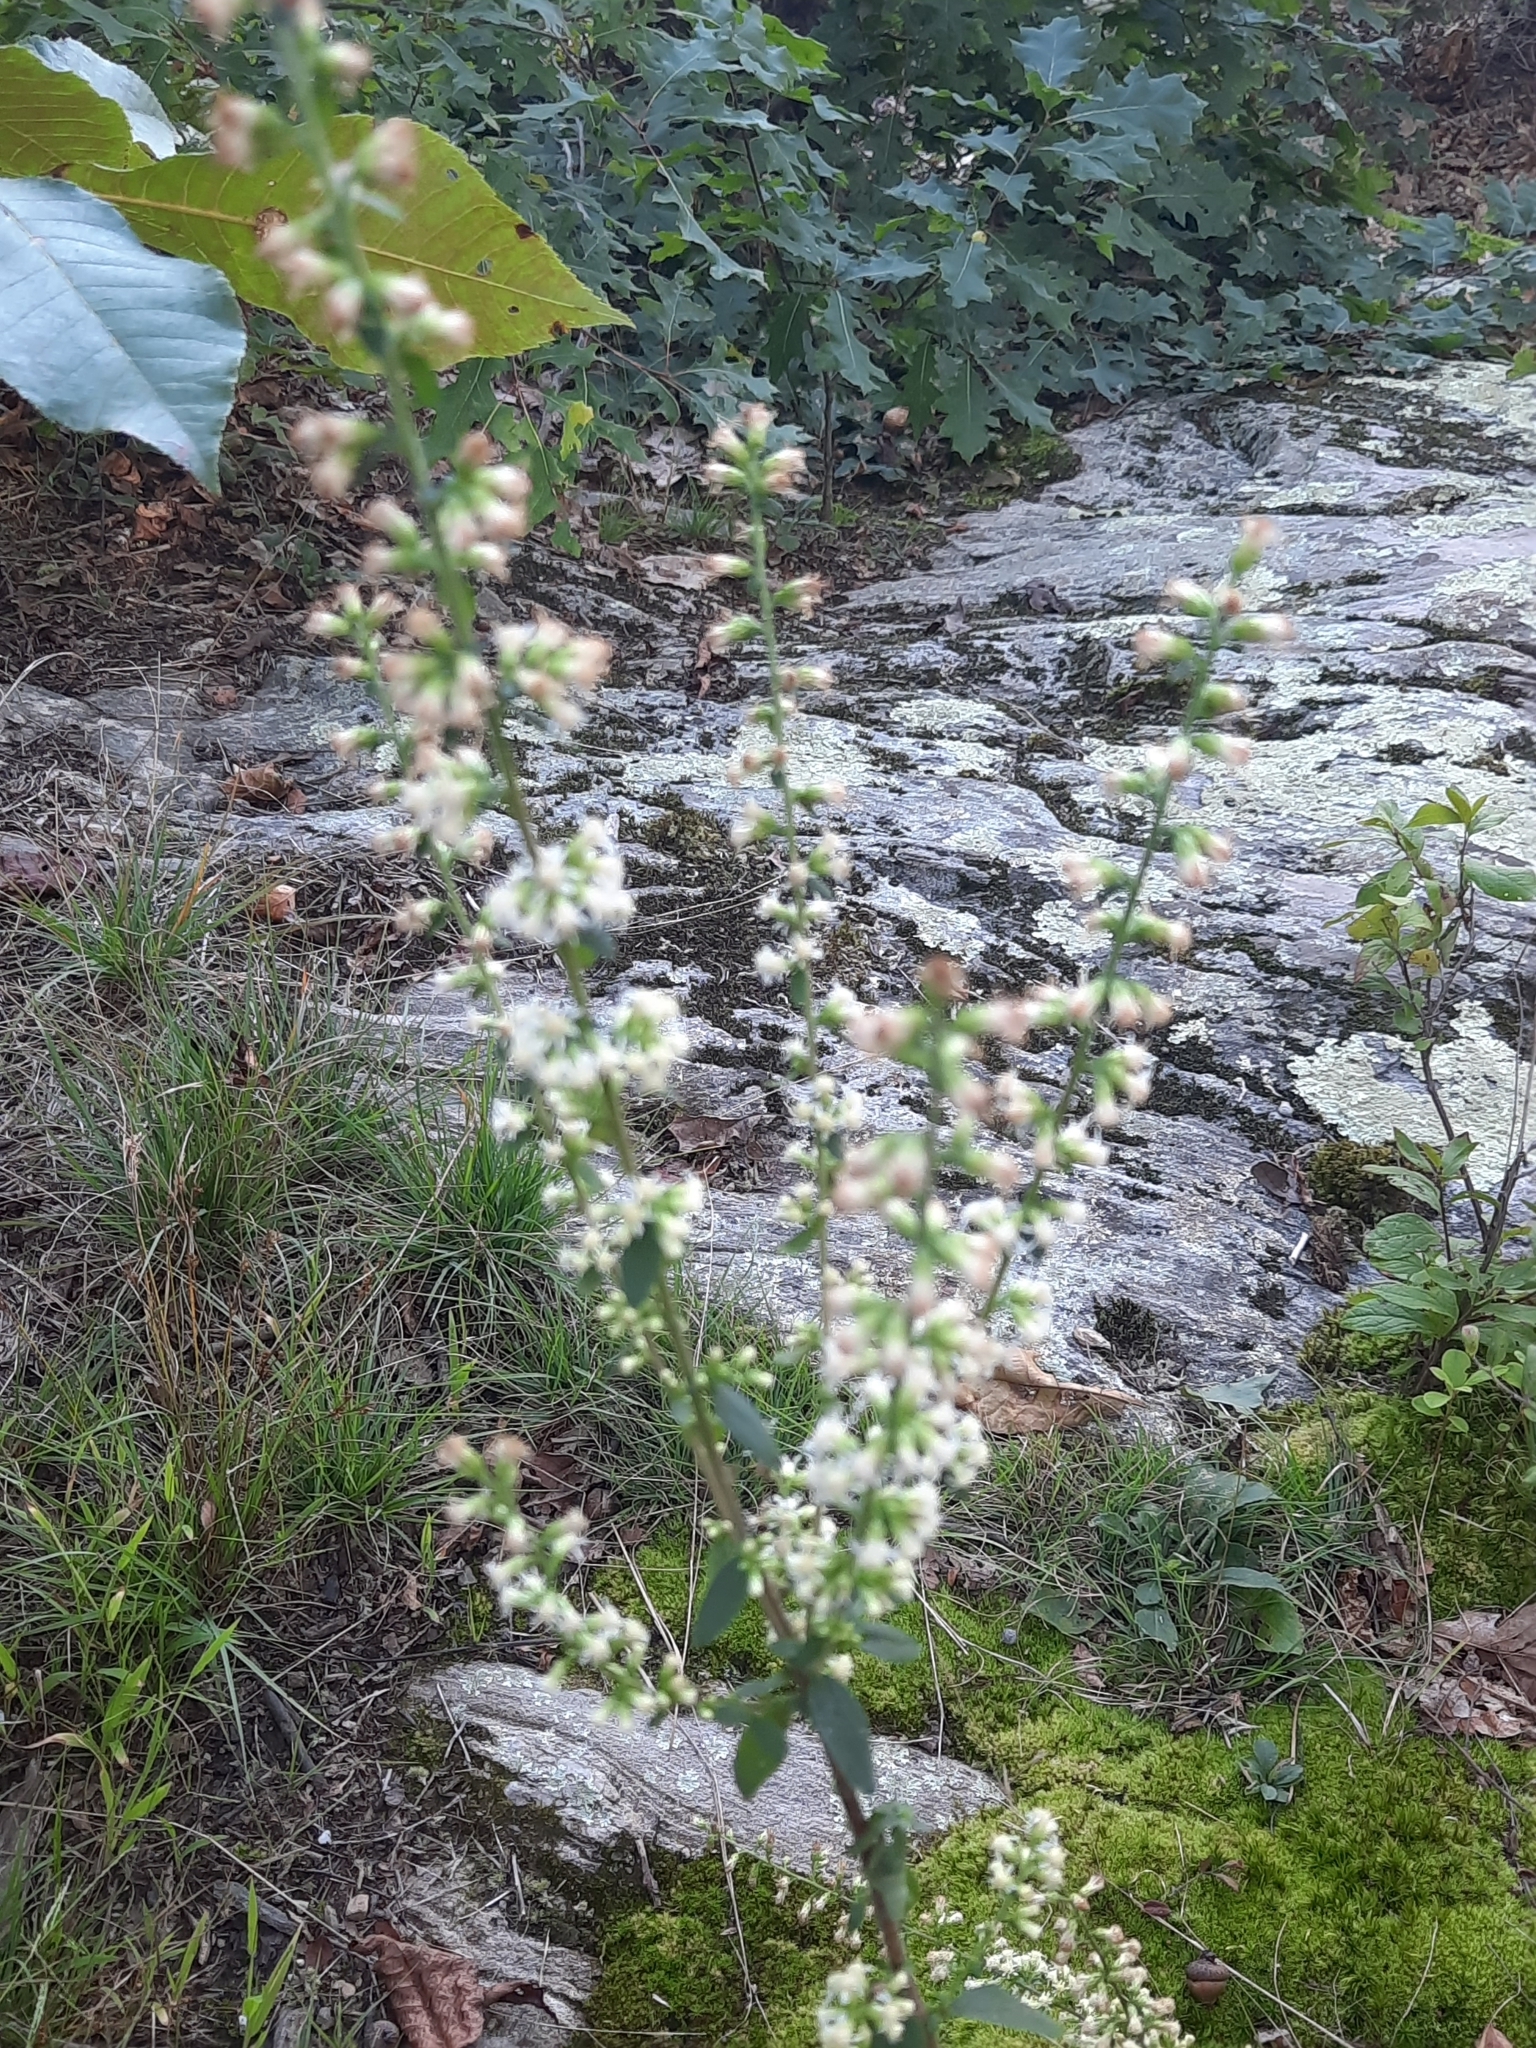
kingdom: Plantae
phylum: Tracheophyta
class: Magnoliopsida
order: Asterales
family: Asteraceae
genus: Solidago
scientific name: Solidago bicolor
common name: Silverrod
